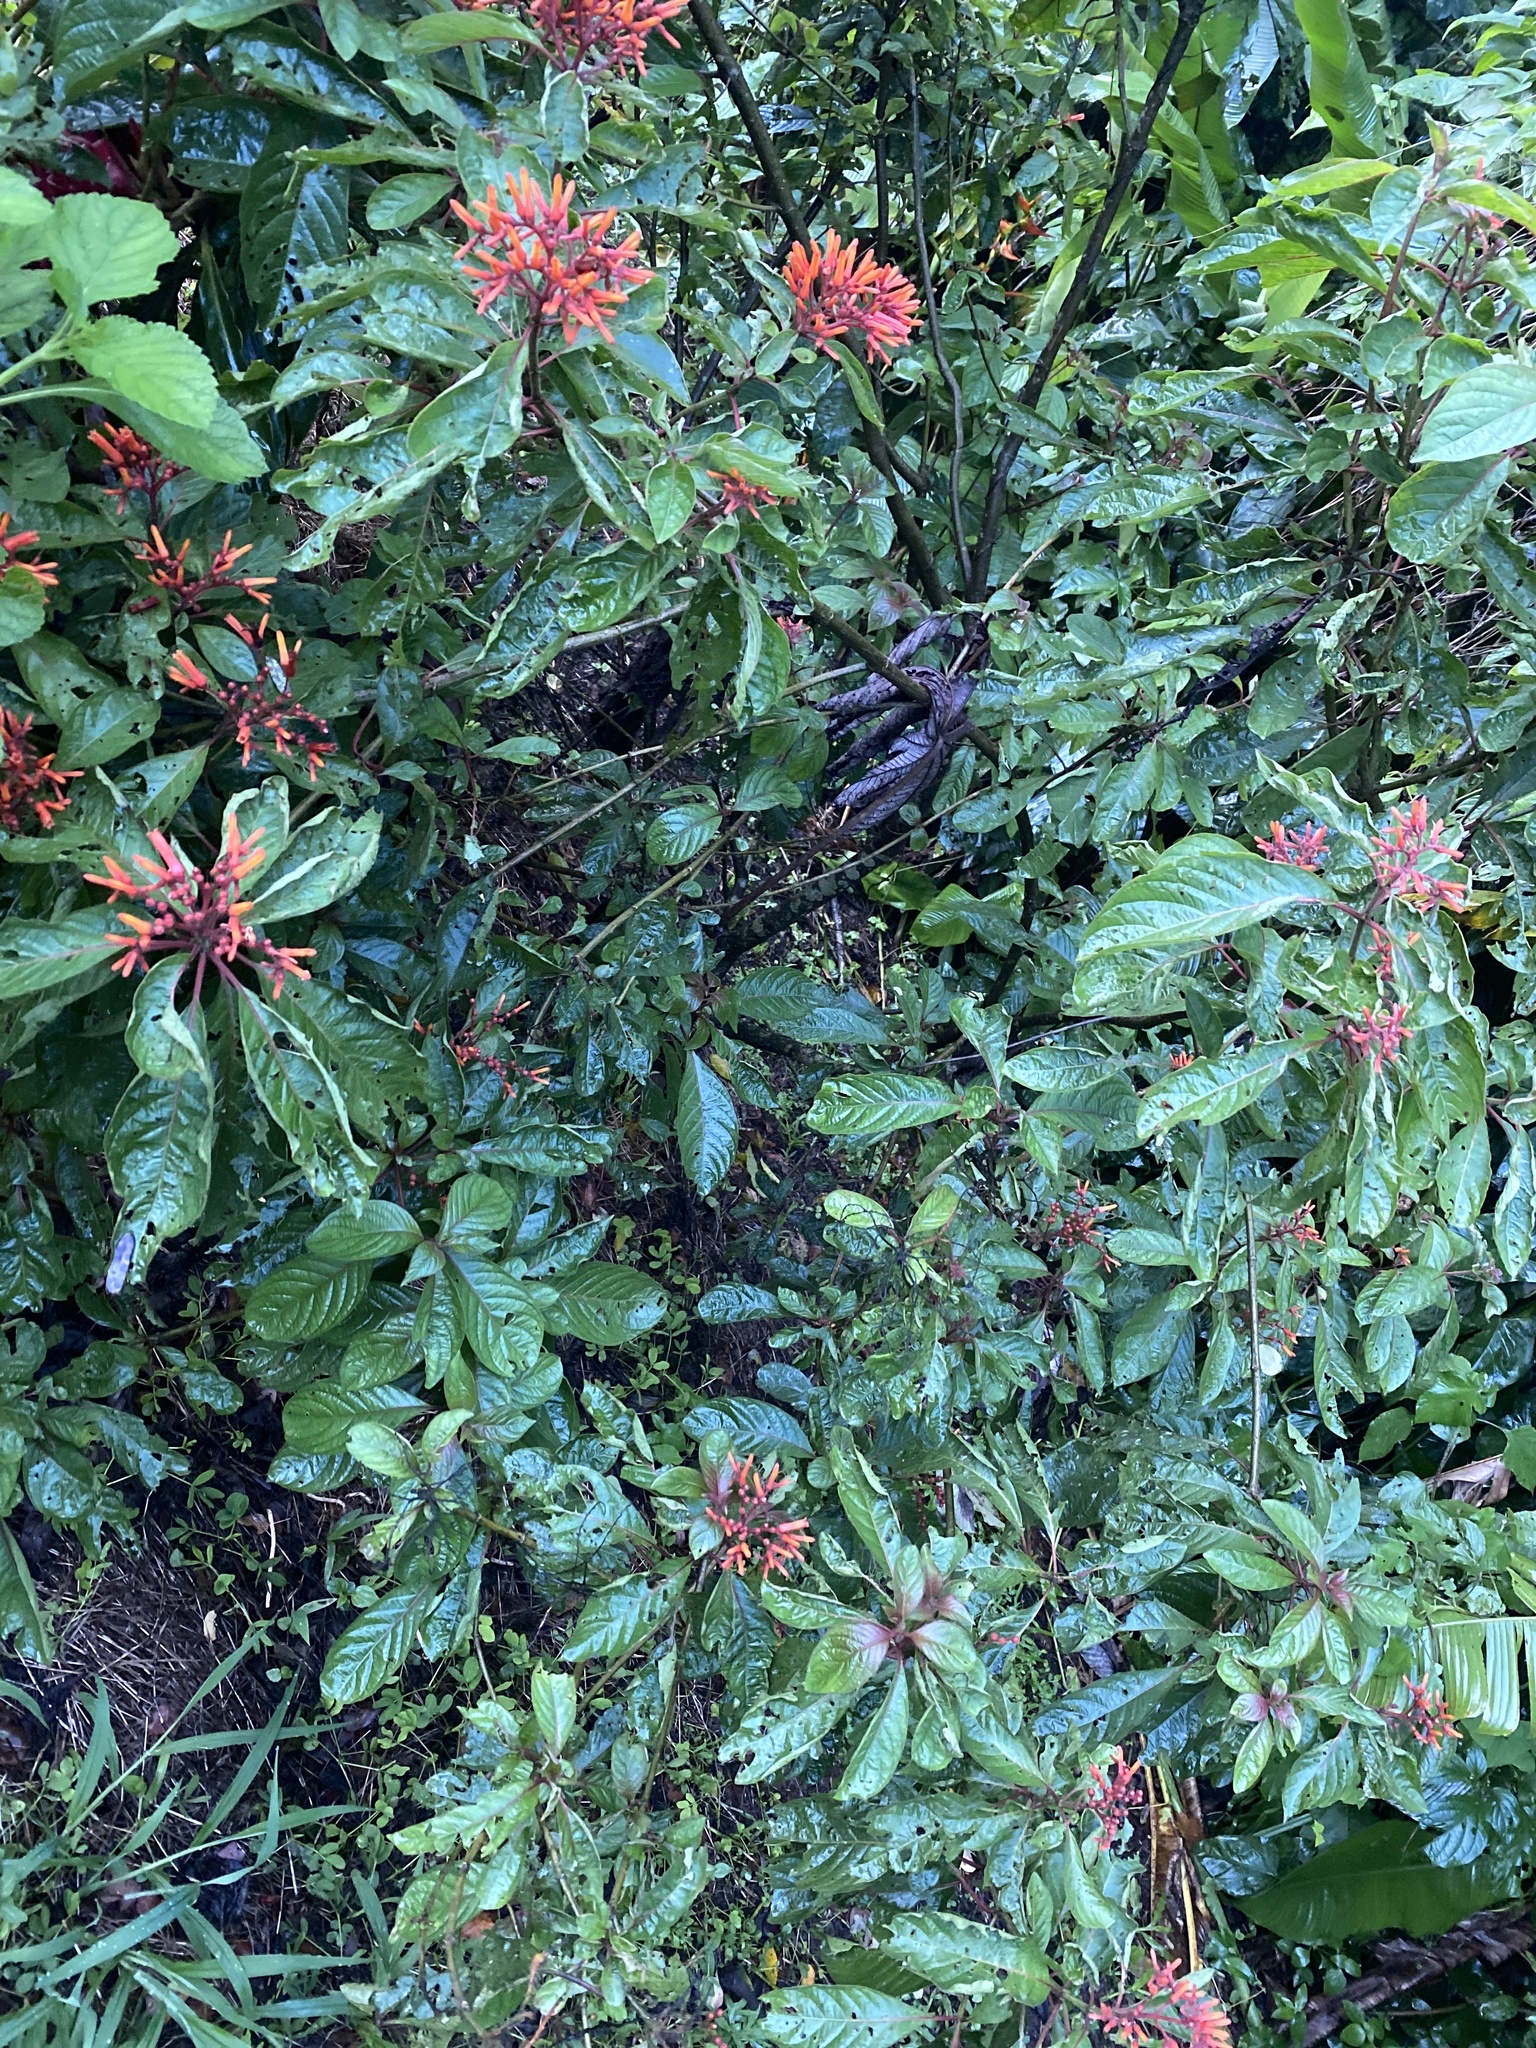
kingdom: Plantae
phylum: Tracheophyta
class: Magnoliopsida
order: Gentianales
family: Rubiaceae
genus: Hamelia
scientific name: Hamelia patens
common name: Redhead
